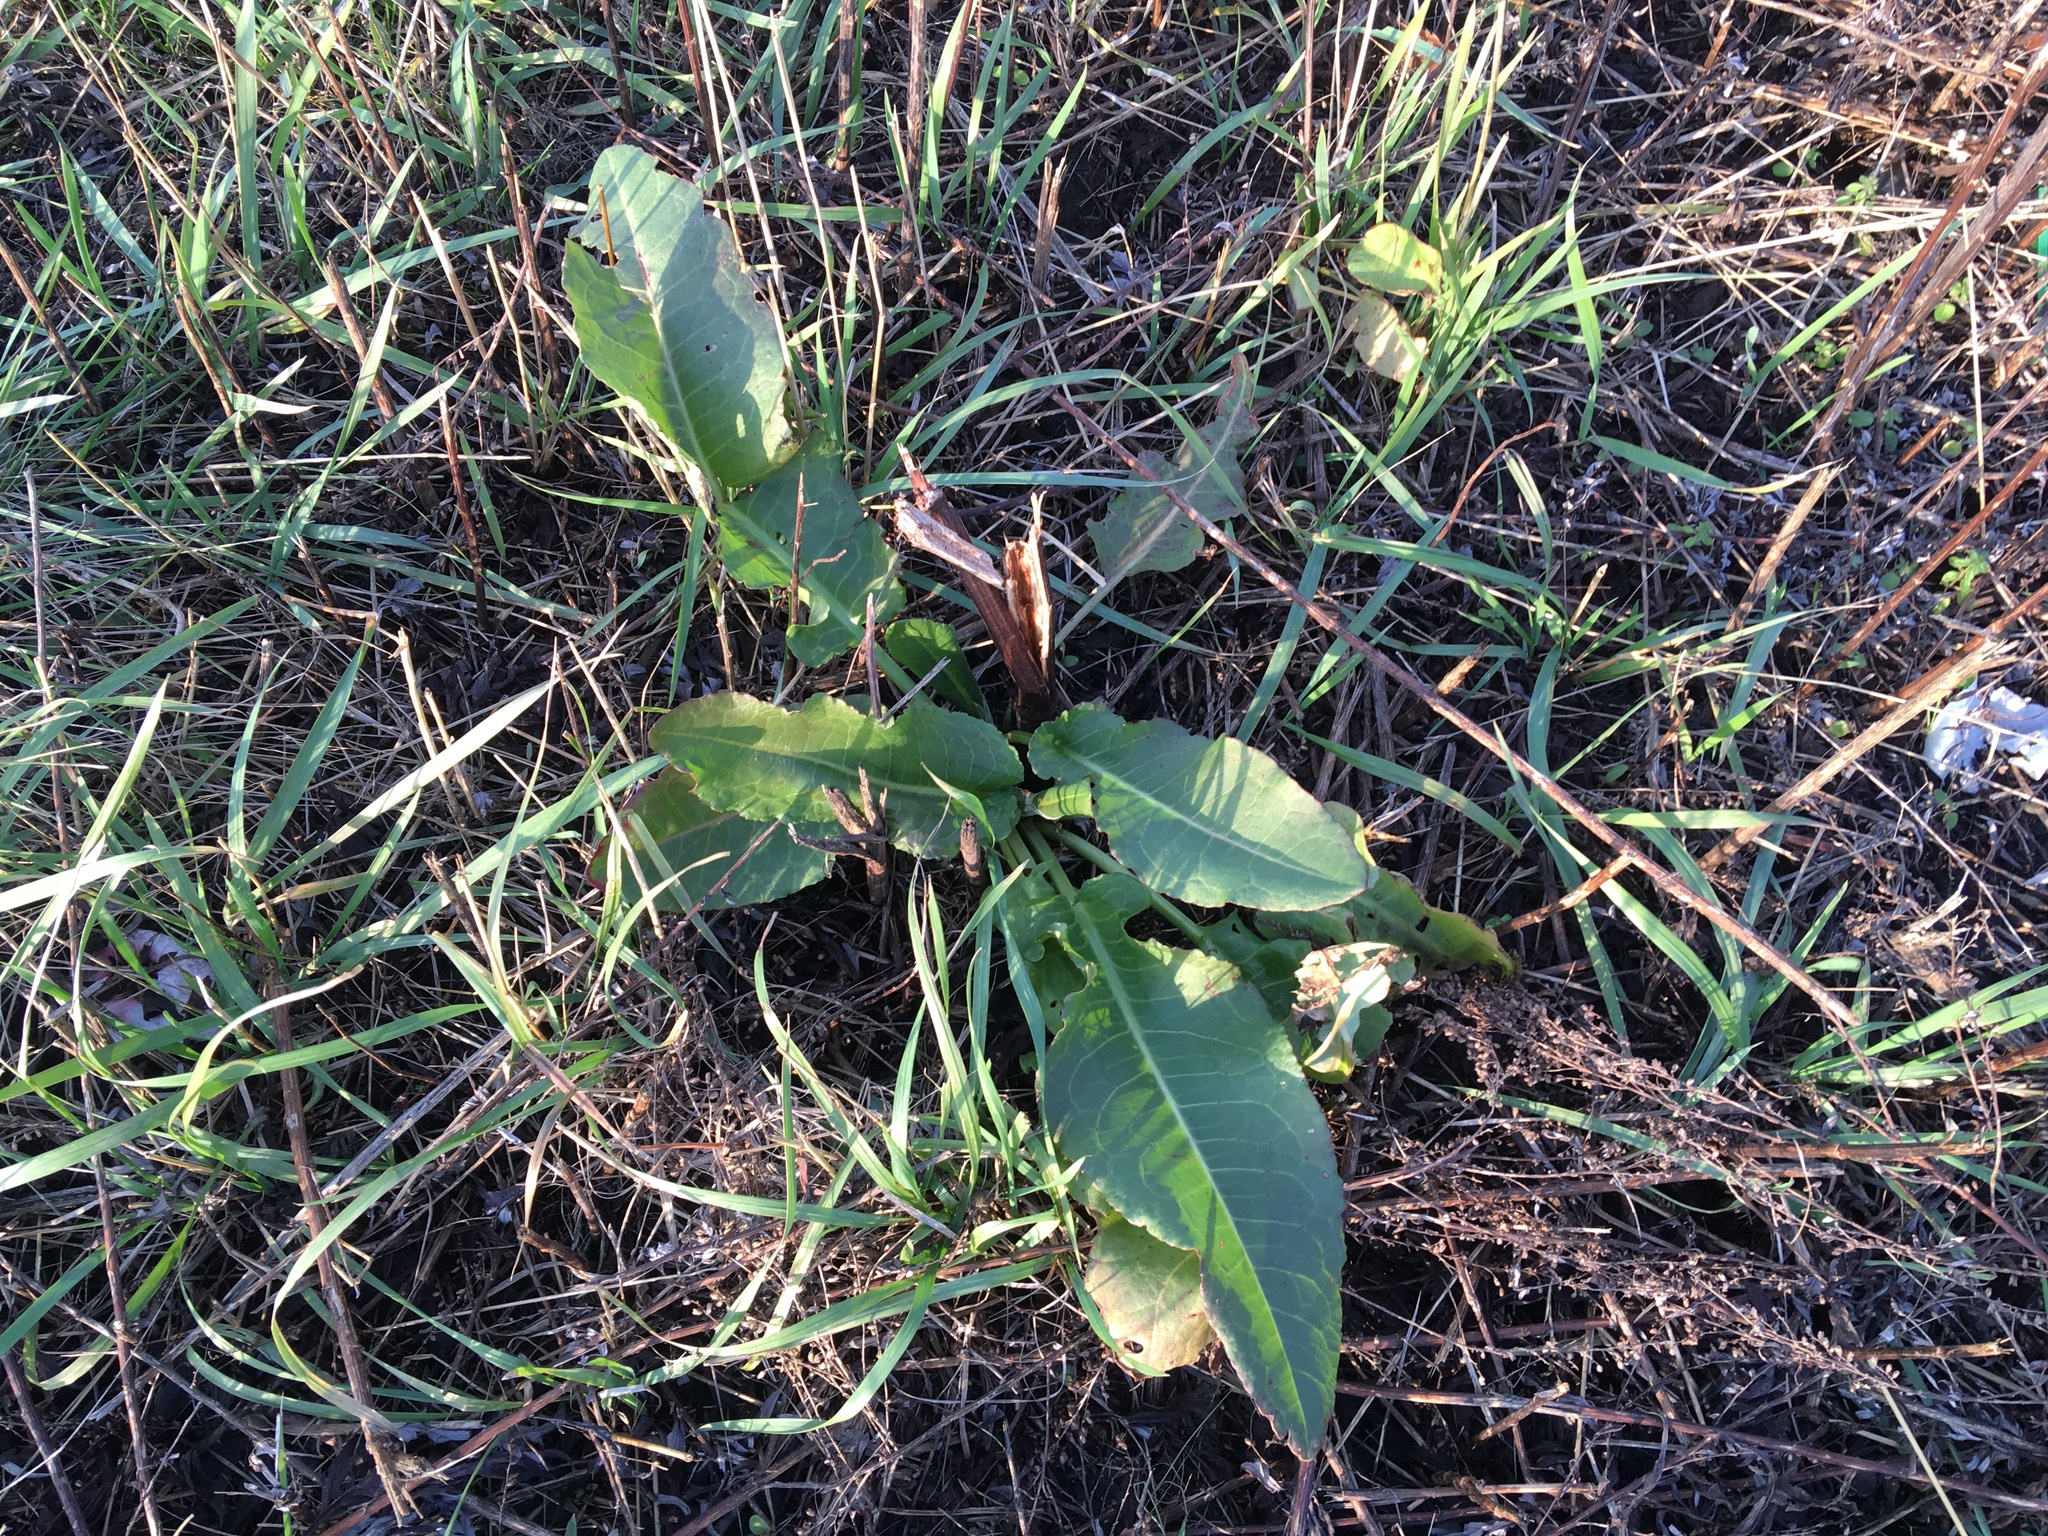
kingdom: Plantae
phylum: Tracheophyta
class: Magnoliopsida
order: Caryophyllales
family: Polygonaceae
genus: Rumex
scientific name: Rumex obtusifolius
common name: Bitter dock
